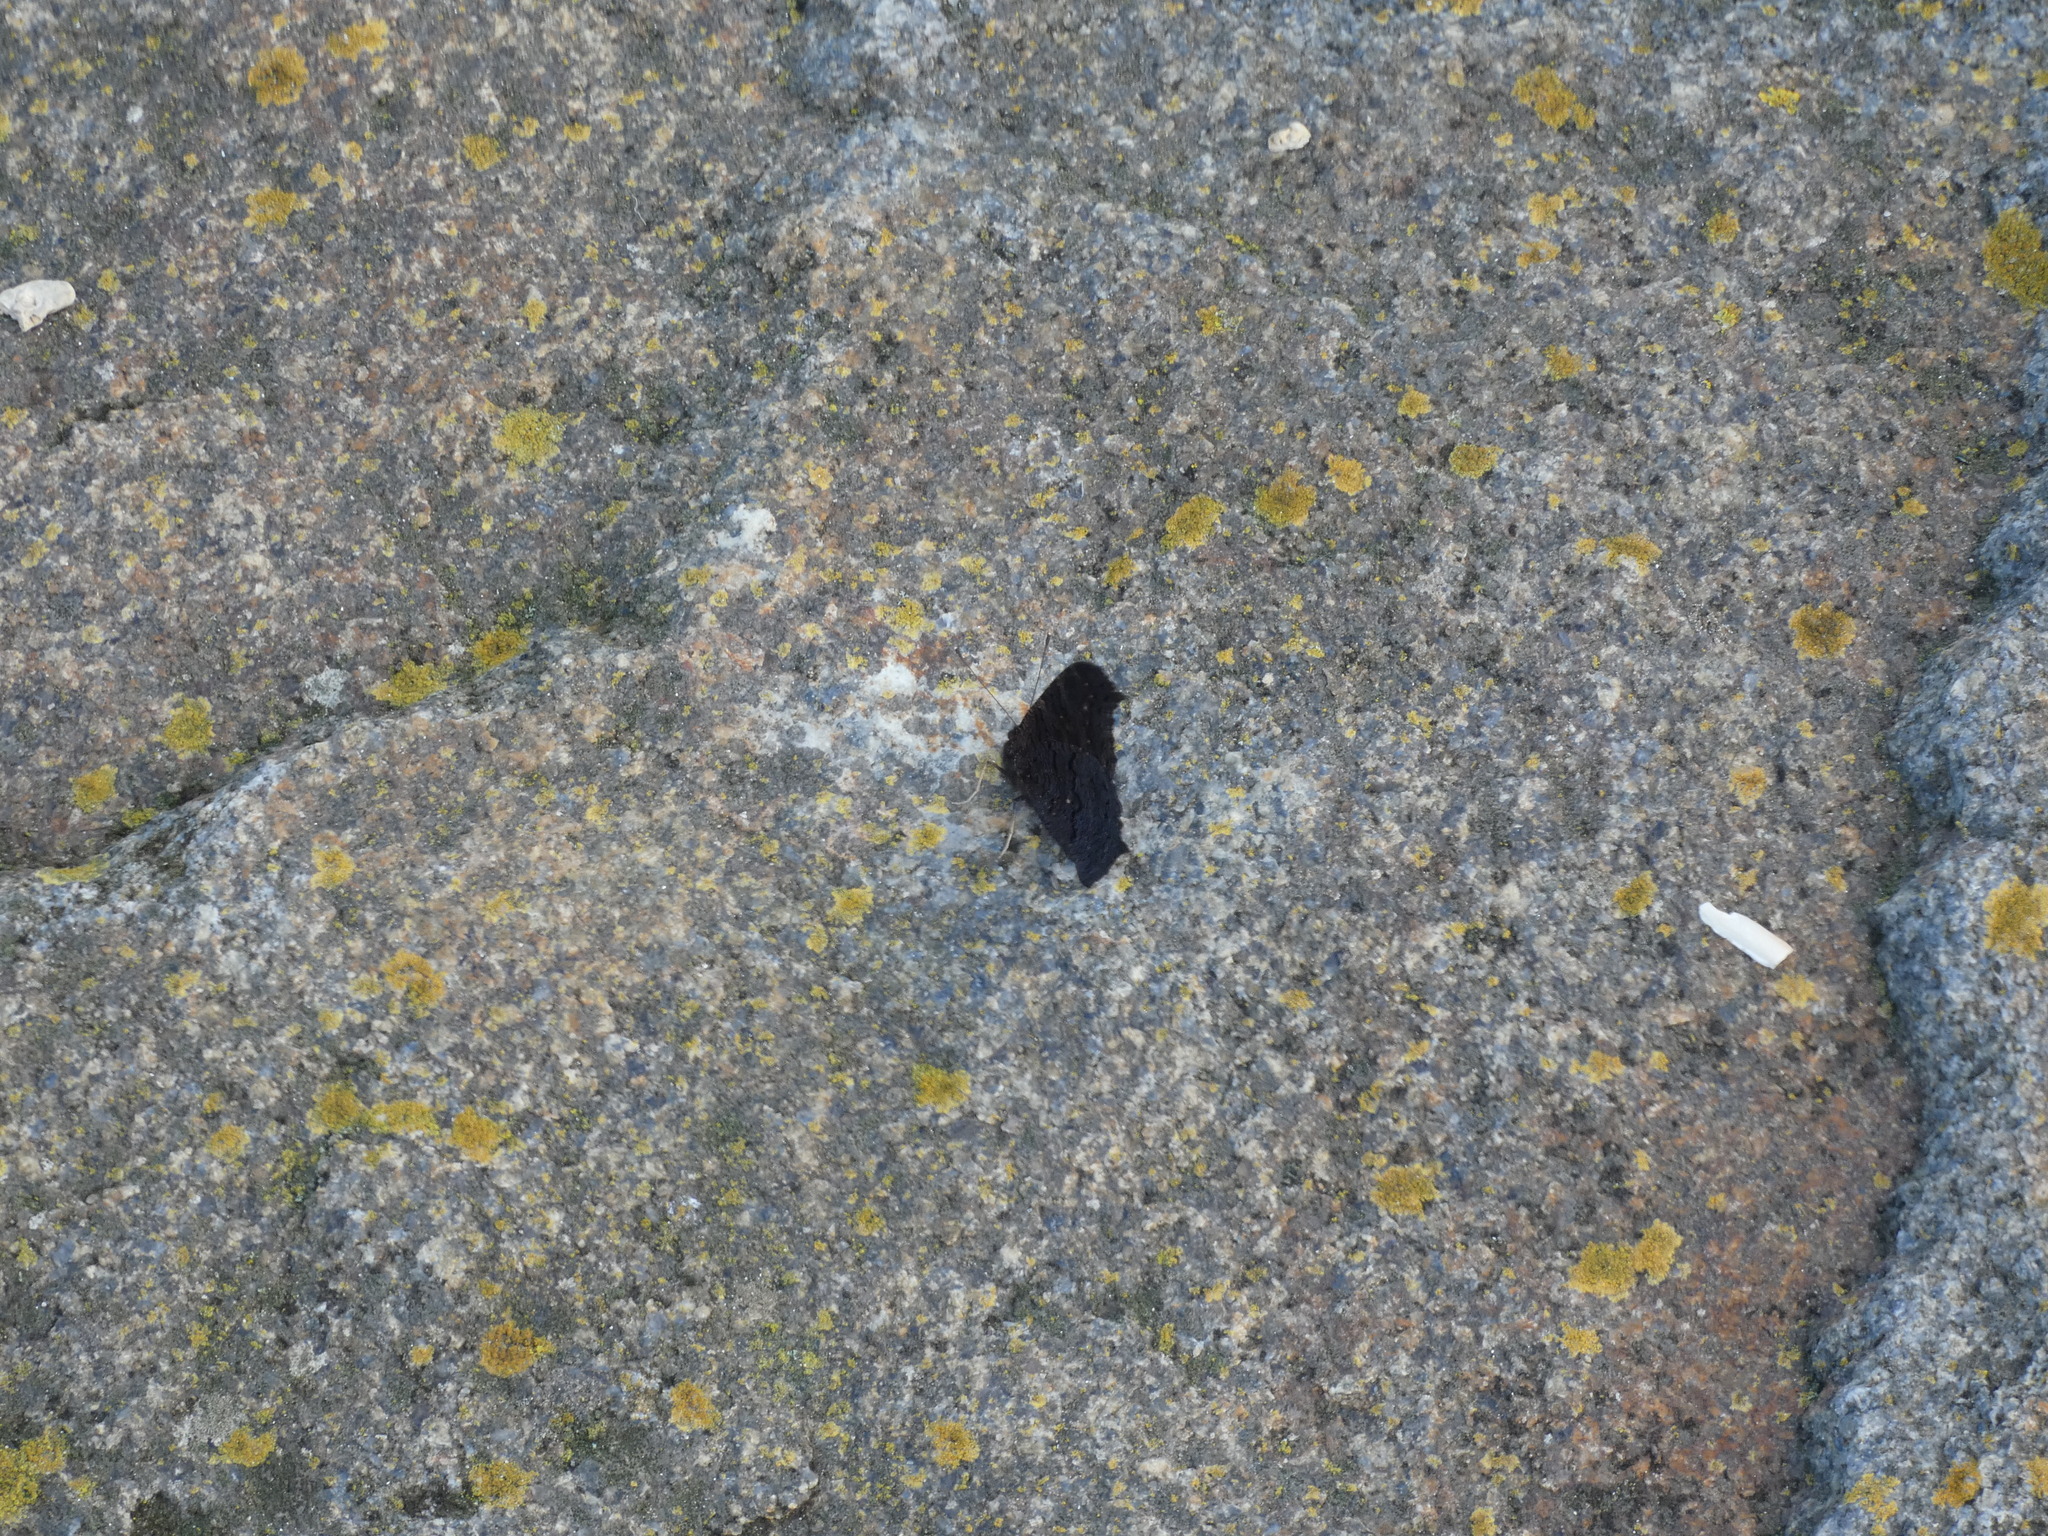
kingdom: Animalia
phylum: Arthropoda
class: Insecta
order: Lepidoptera
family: Nymphalidae
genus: Aglais
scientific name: Aglais io
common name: Peacock
